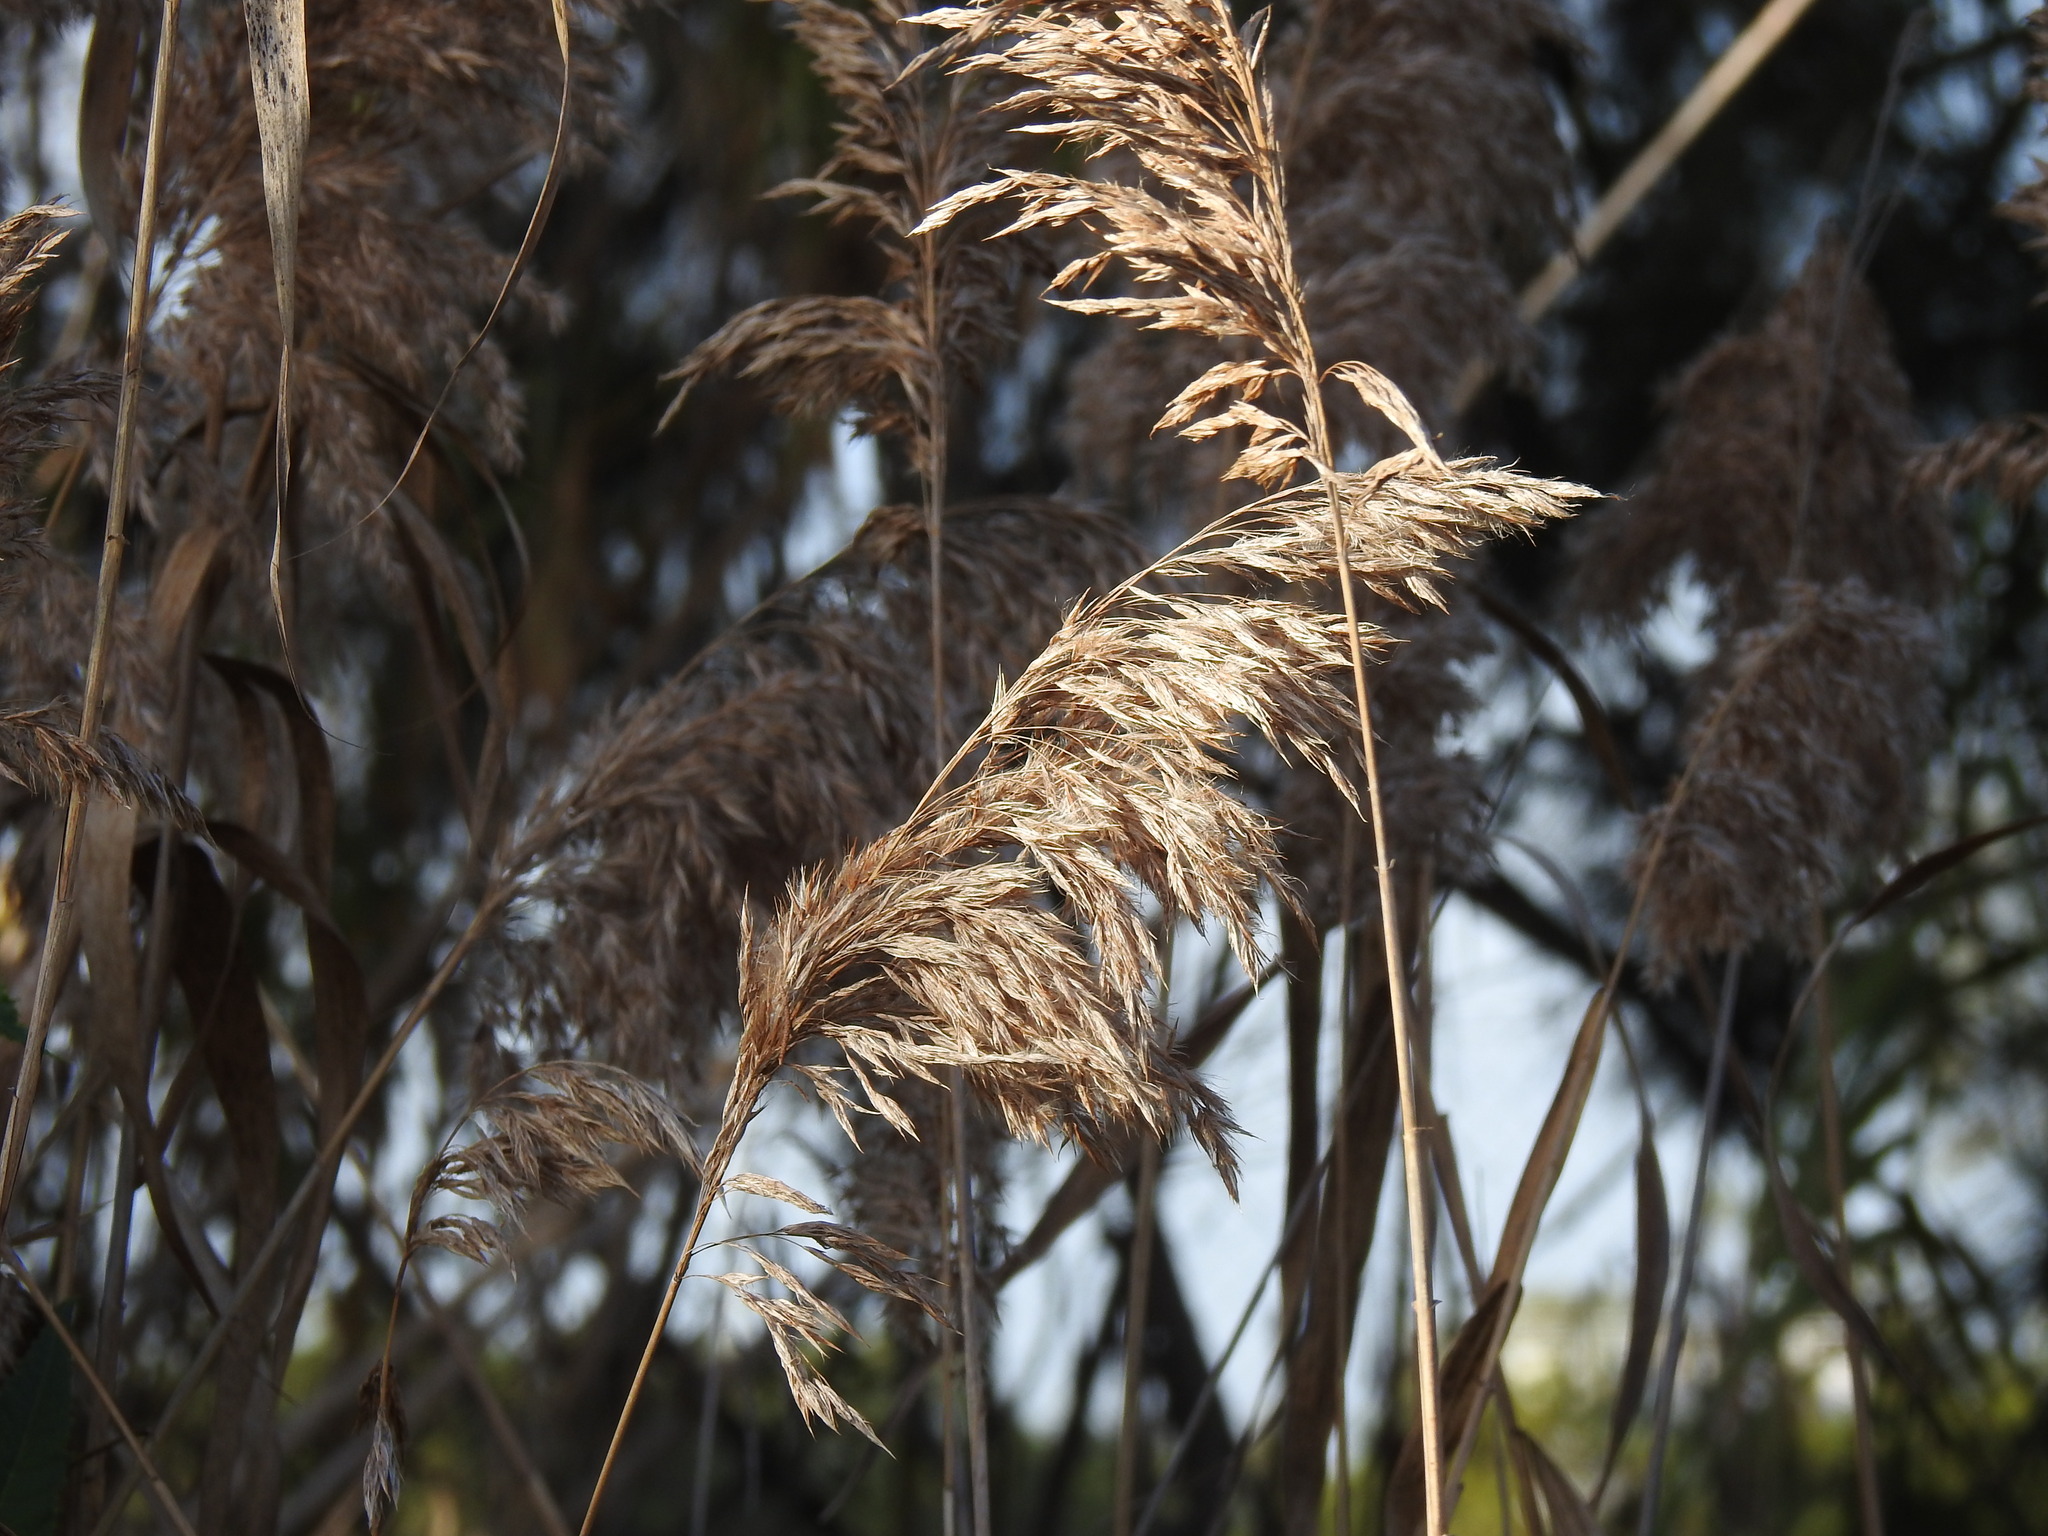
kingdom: Plantae
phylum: Tracheophyta
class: Liliopsida
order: Poales
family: Poaceae
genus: Phragmites
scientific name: Phragmites australis
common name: Common reed
